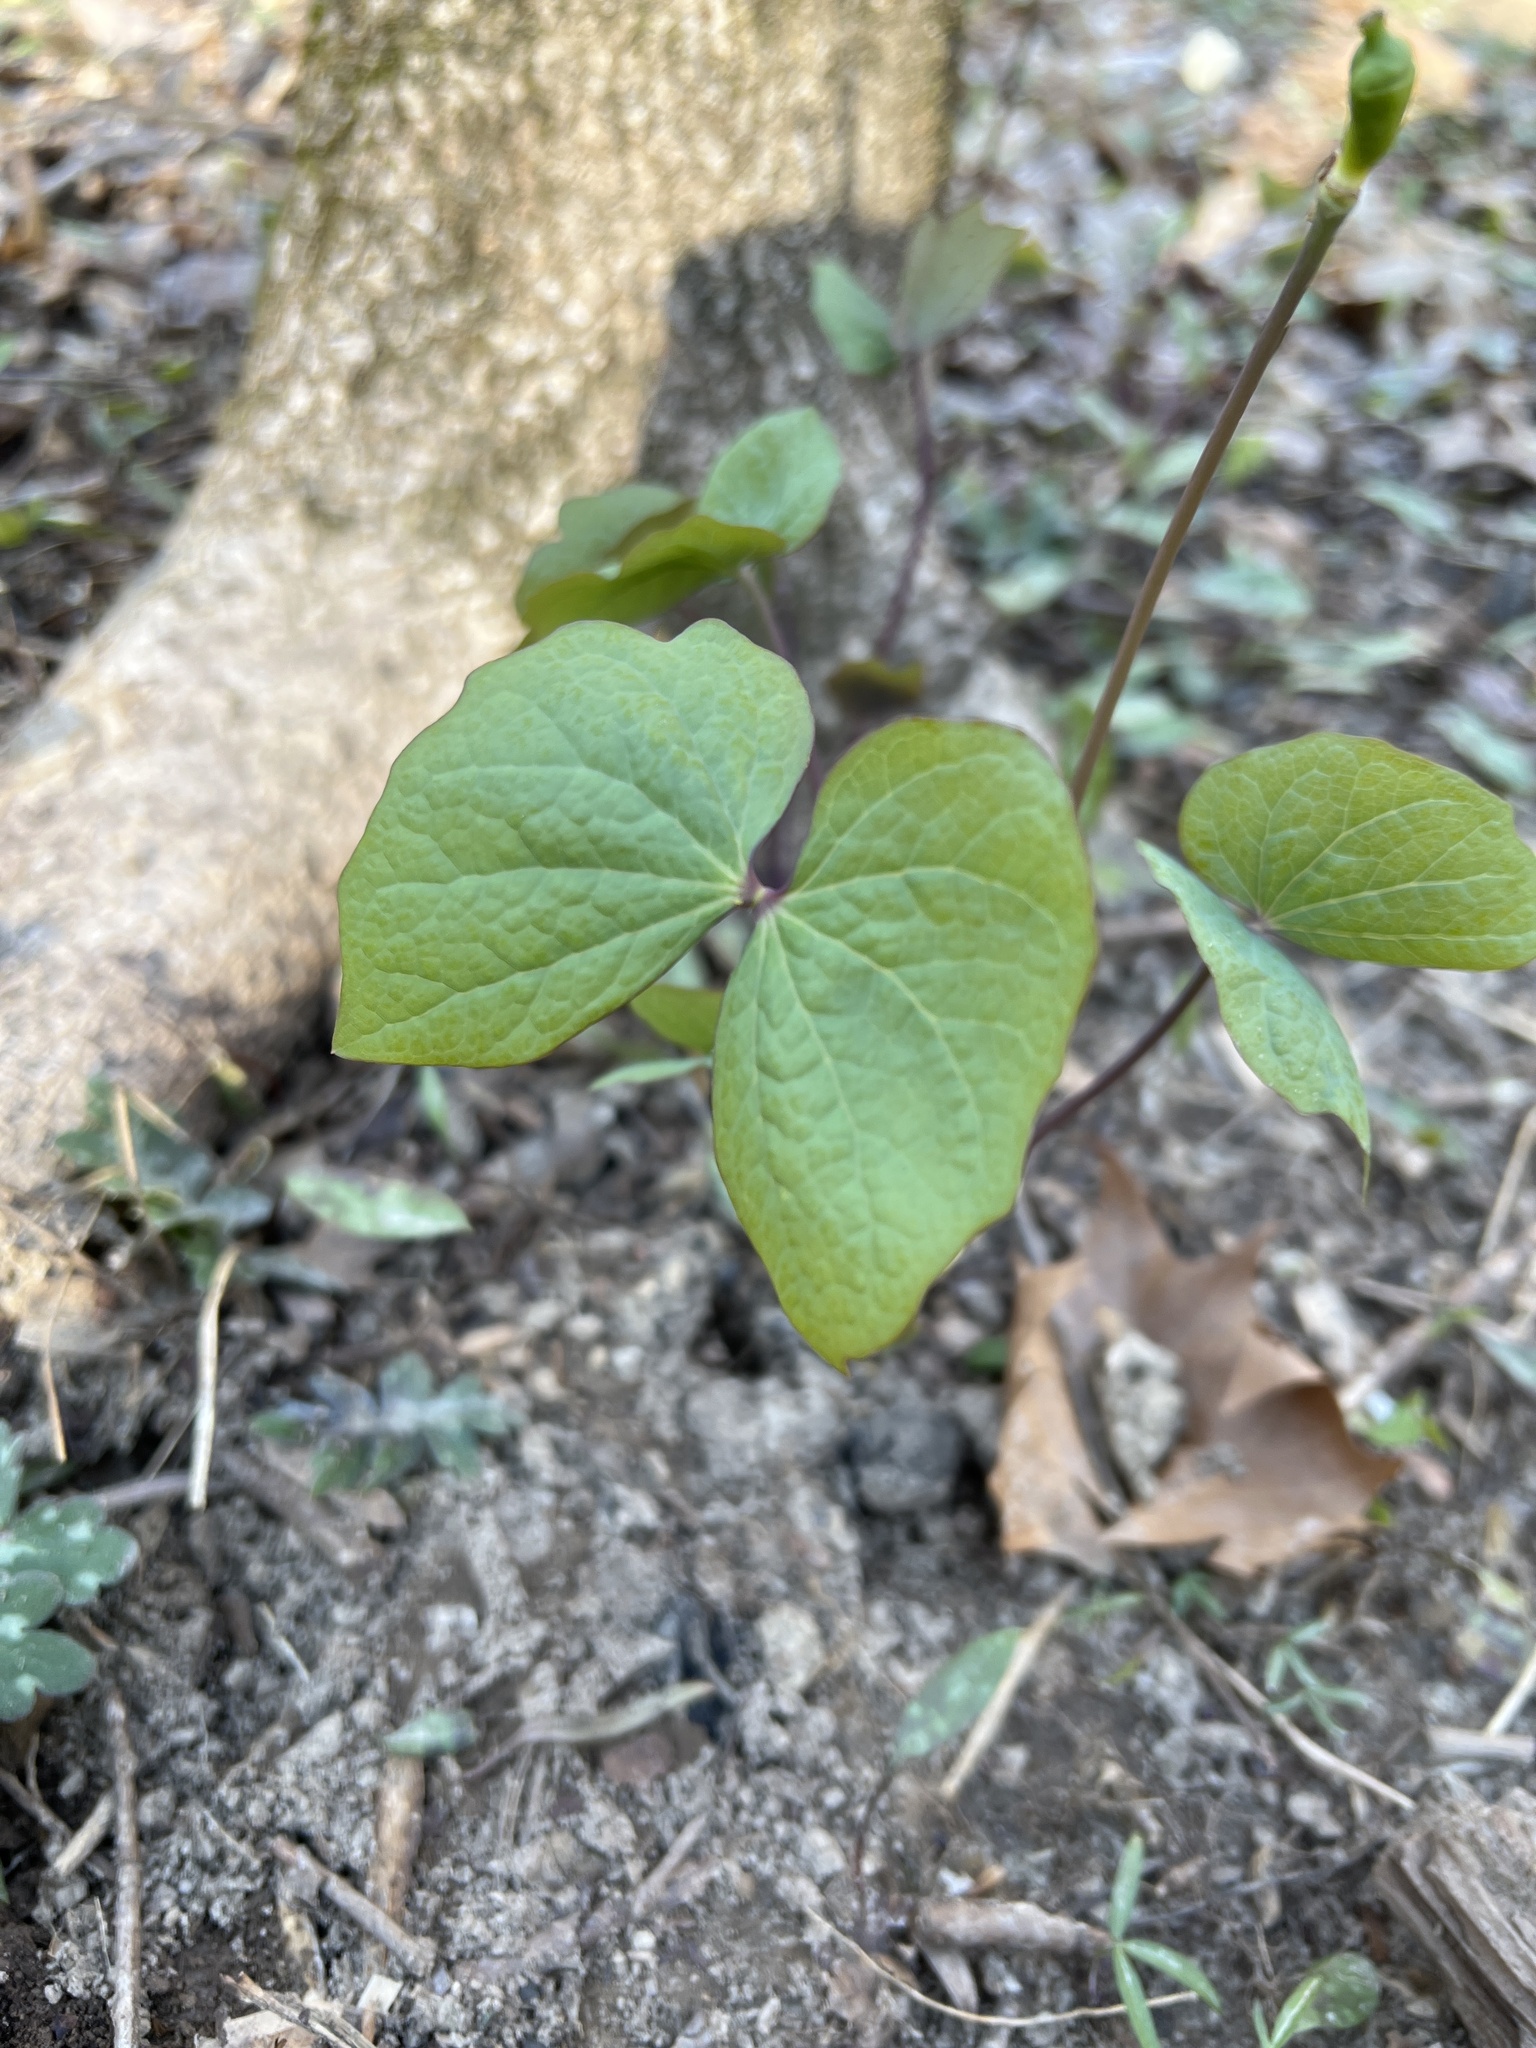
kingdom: Plantae
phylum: Tracheophyta
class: Magnoliopsida
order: Ranunculales
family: Berberidaceae
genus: Jeffersonia
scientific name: Jeffersonia diphylla
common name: Rheumatism-root
